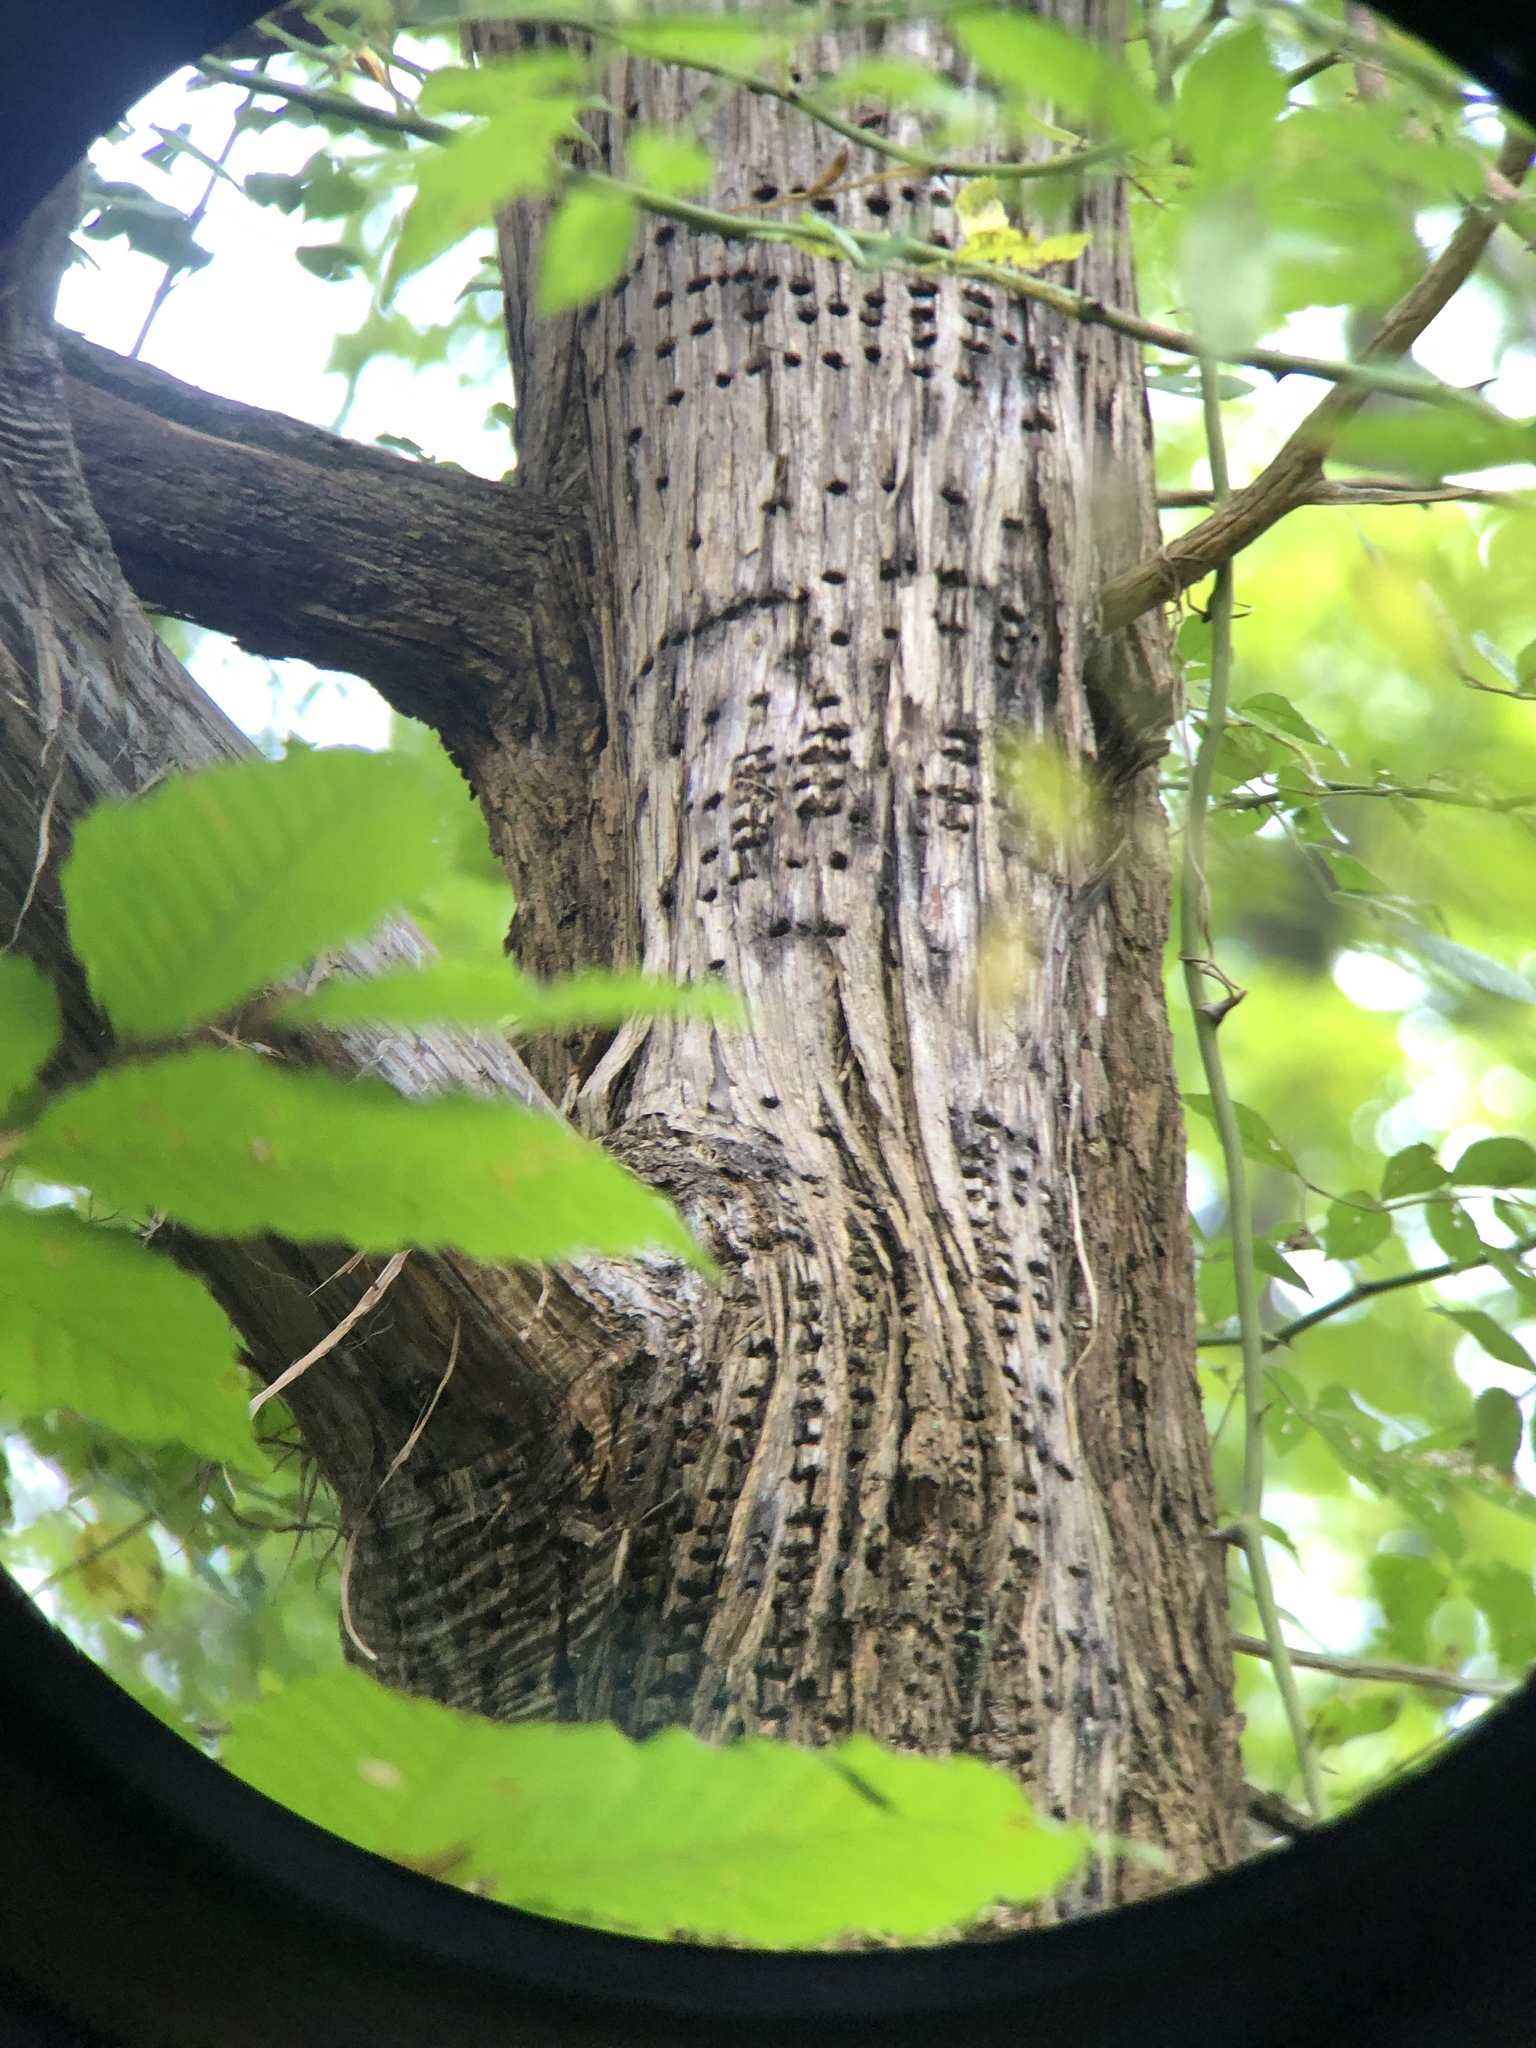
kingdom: Animalia
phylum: Chordata
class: Aves
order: Piciformes
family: Picidae
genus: Sphyrapicus
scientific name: Sphyrapicus varius
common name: Yellow-bellied sapsucker
